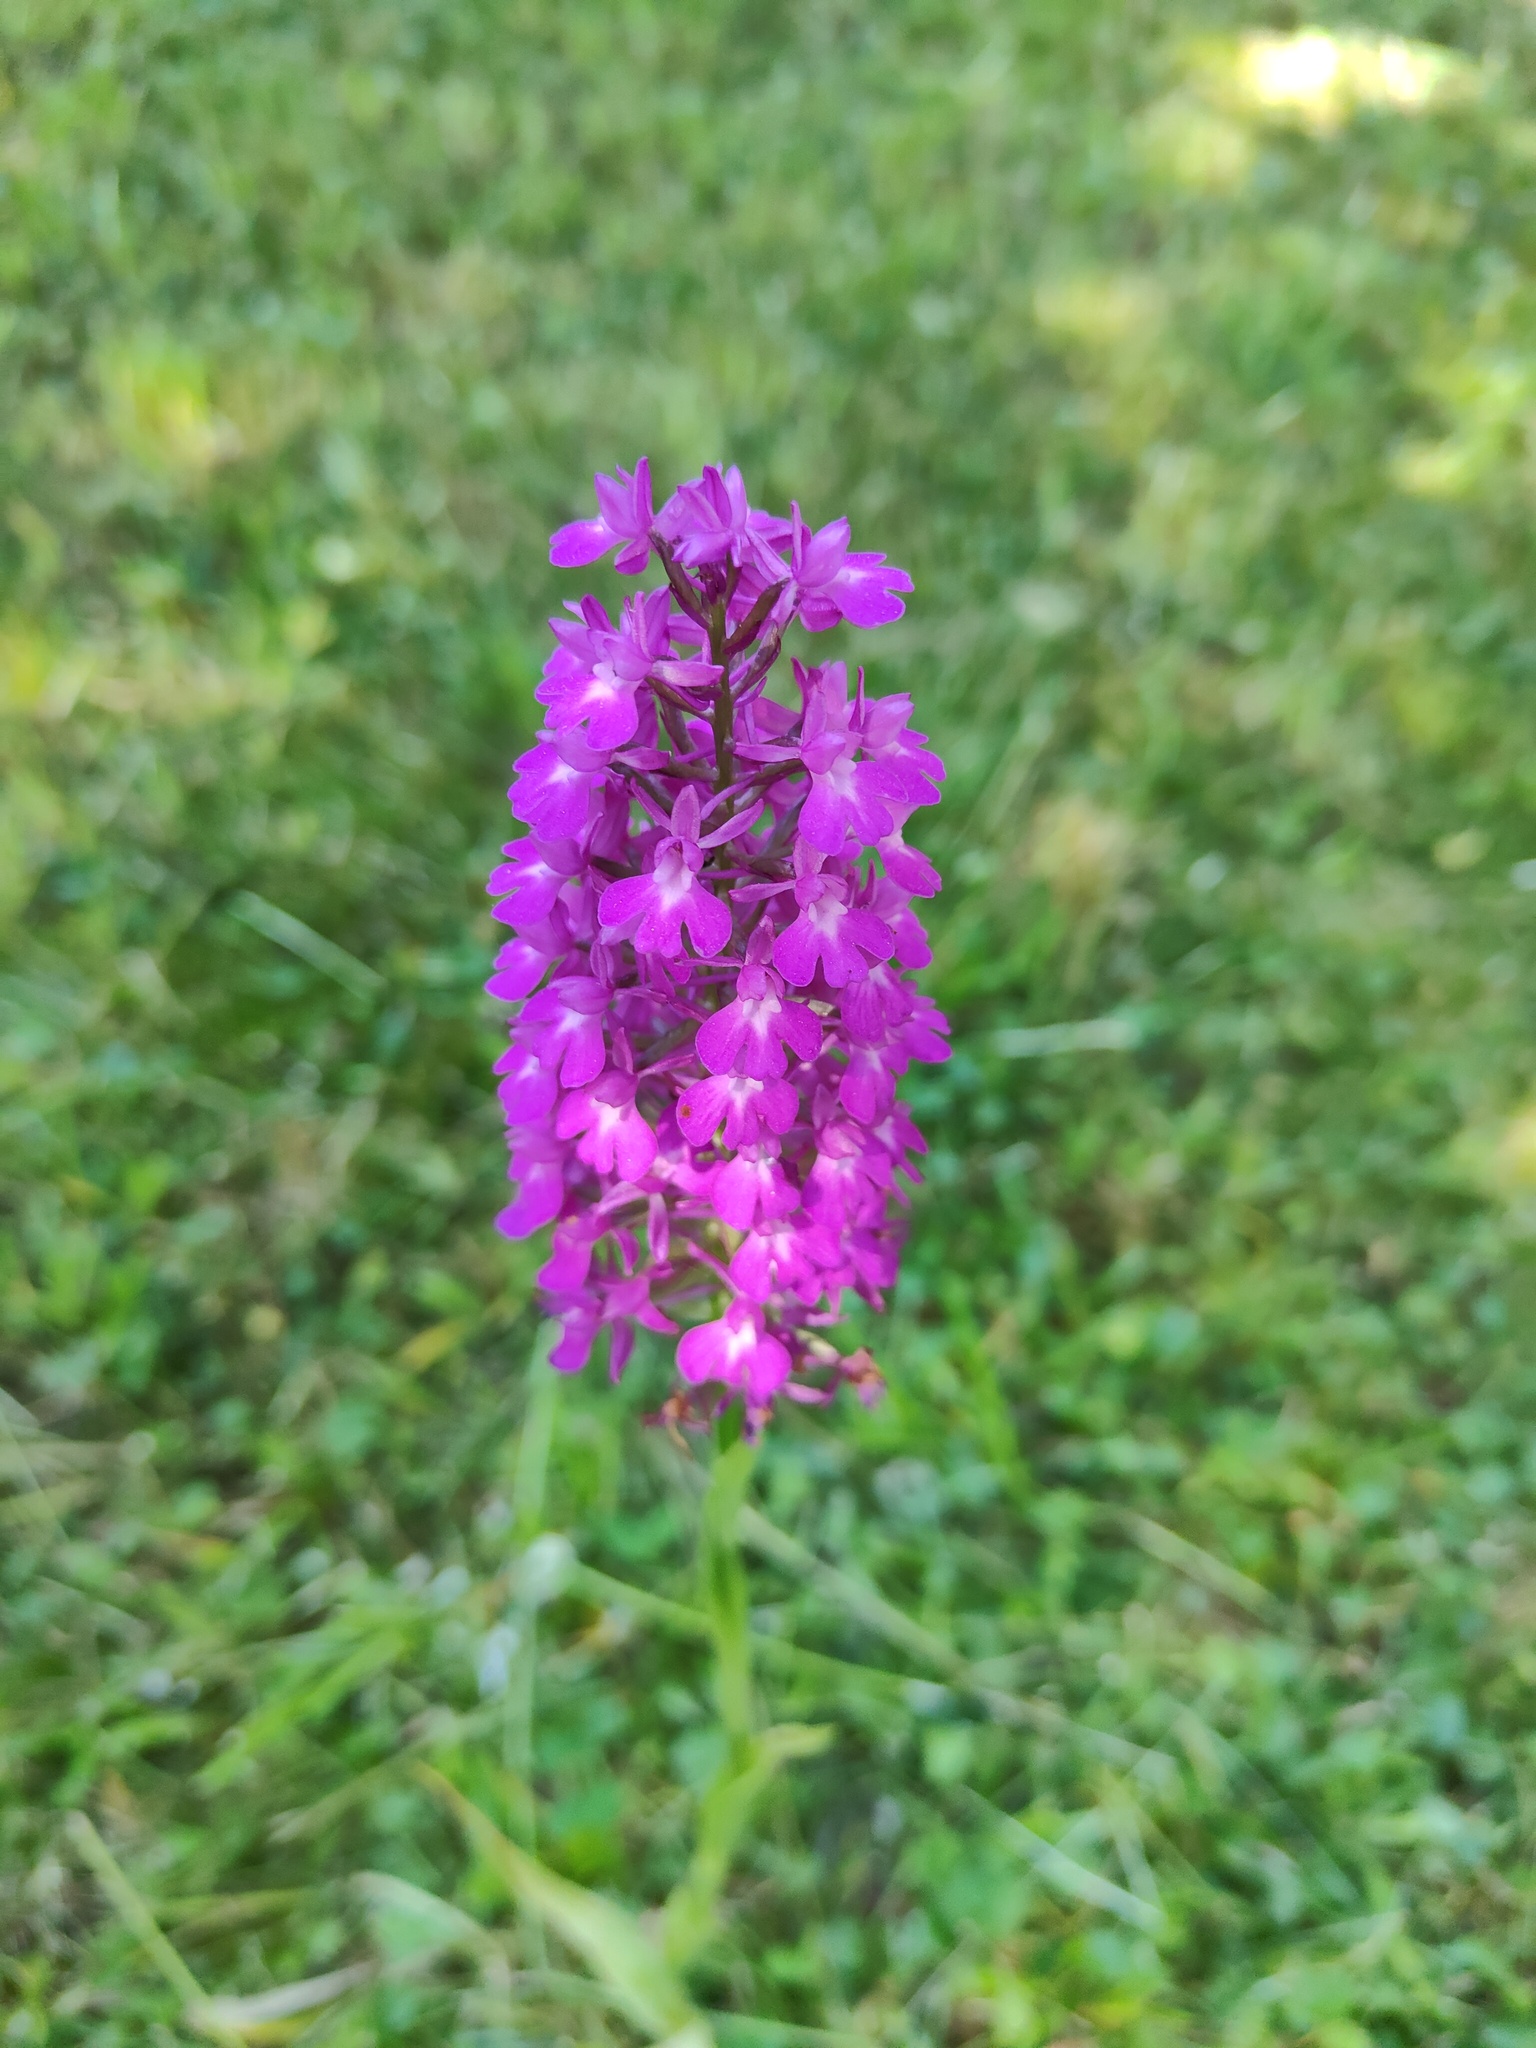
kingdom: Plantae
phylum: Tracheophyta
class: Liliopsida
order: Asparagales
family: Orchidaceae
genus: Anacamptis
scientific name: Anacamptis pyramidalis
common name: Pyramidal orchid
